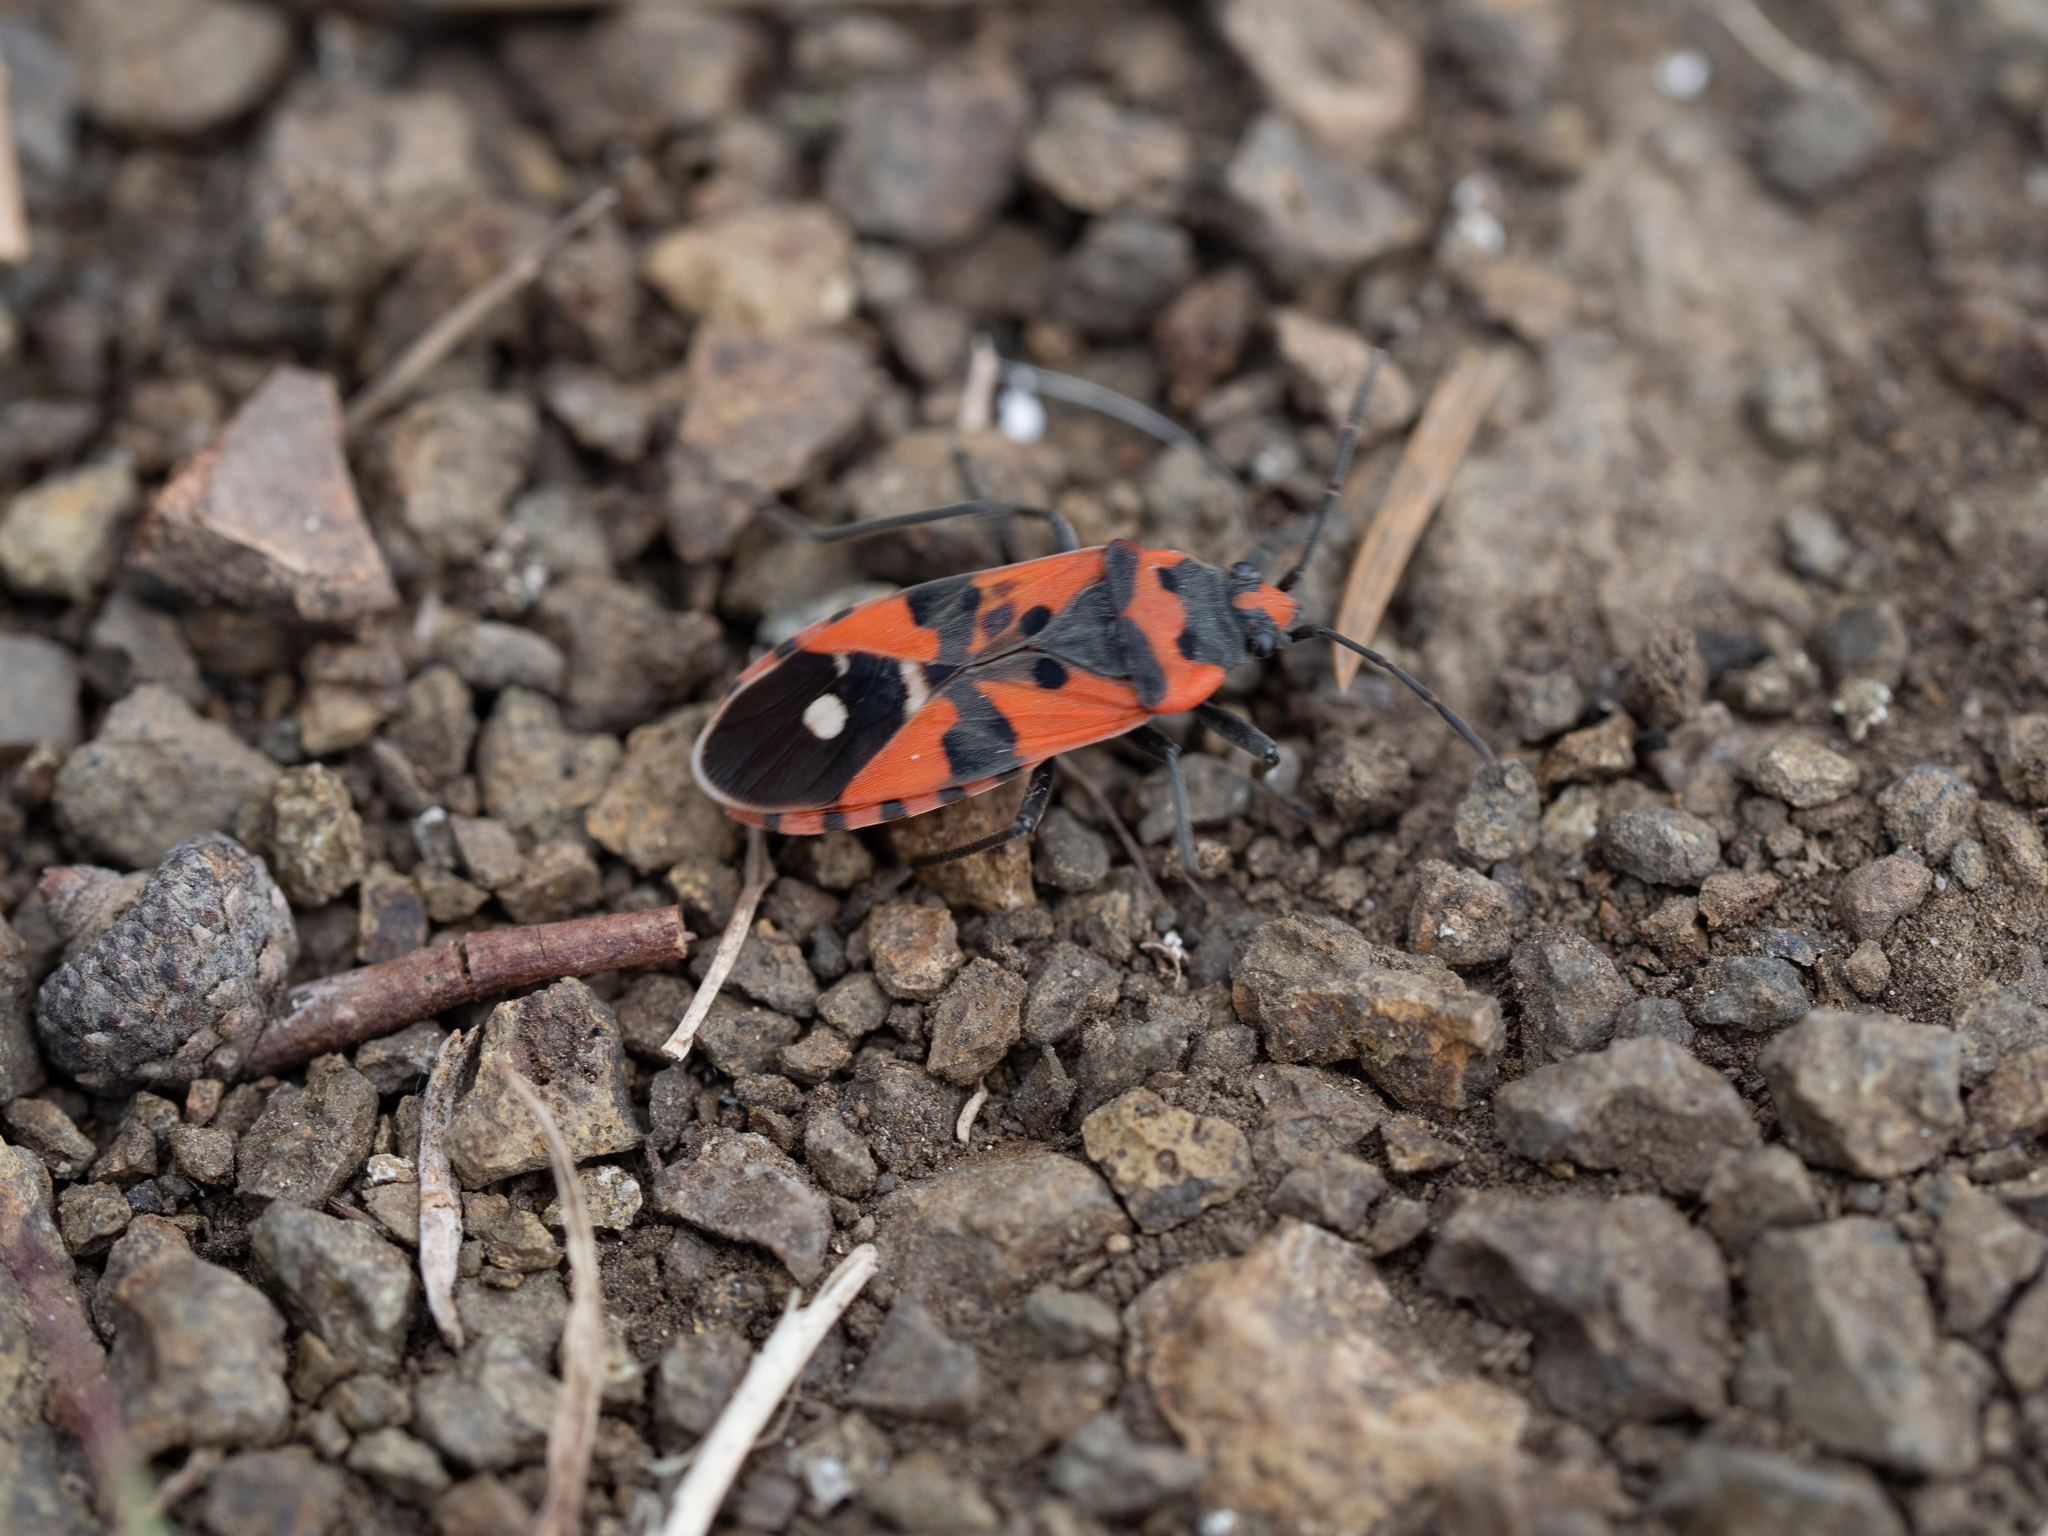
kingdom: Animalia
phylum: Arthropoda
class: Insecta
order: Hemiptera
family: Lygaeidae
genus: Lygaeus
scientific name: Lygaeus equestris
